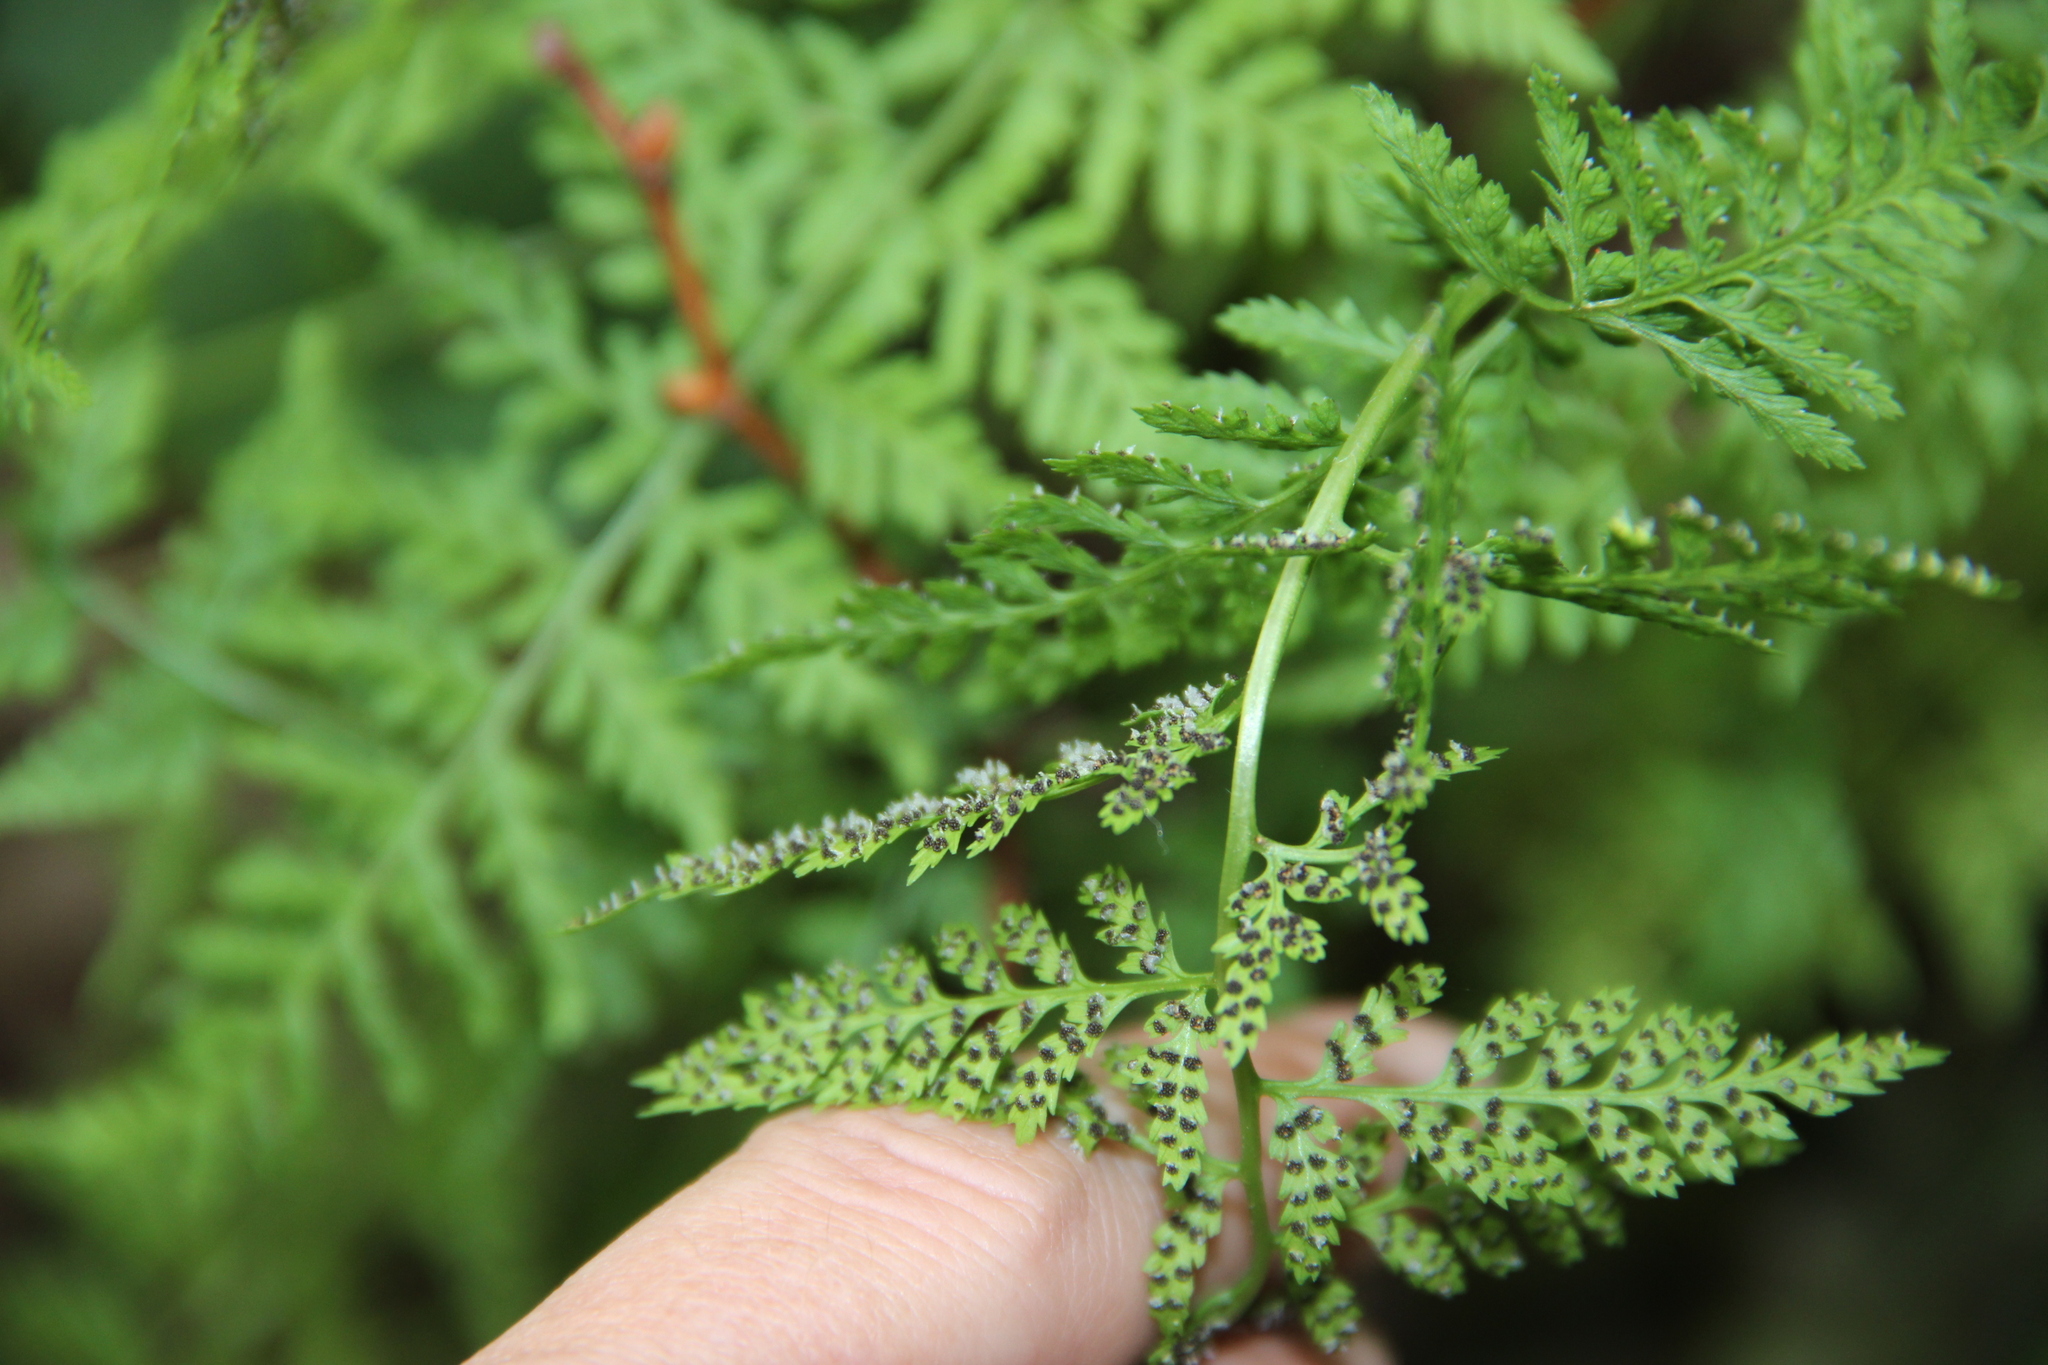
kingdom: Plantae
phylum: Tracheophyta
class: Polypodiopsida
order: Polypodiales
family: Cystopteridaceae
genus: Cystopteris
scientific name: Cystopteris fragilis
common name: Brittle bladder fern
